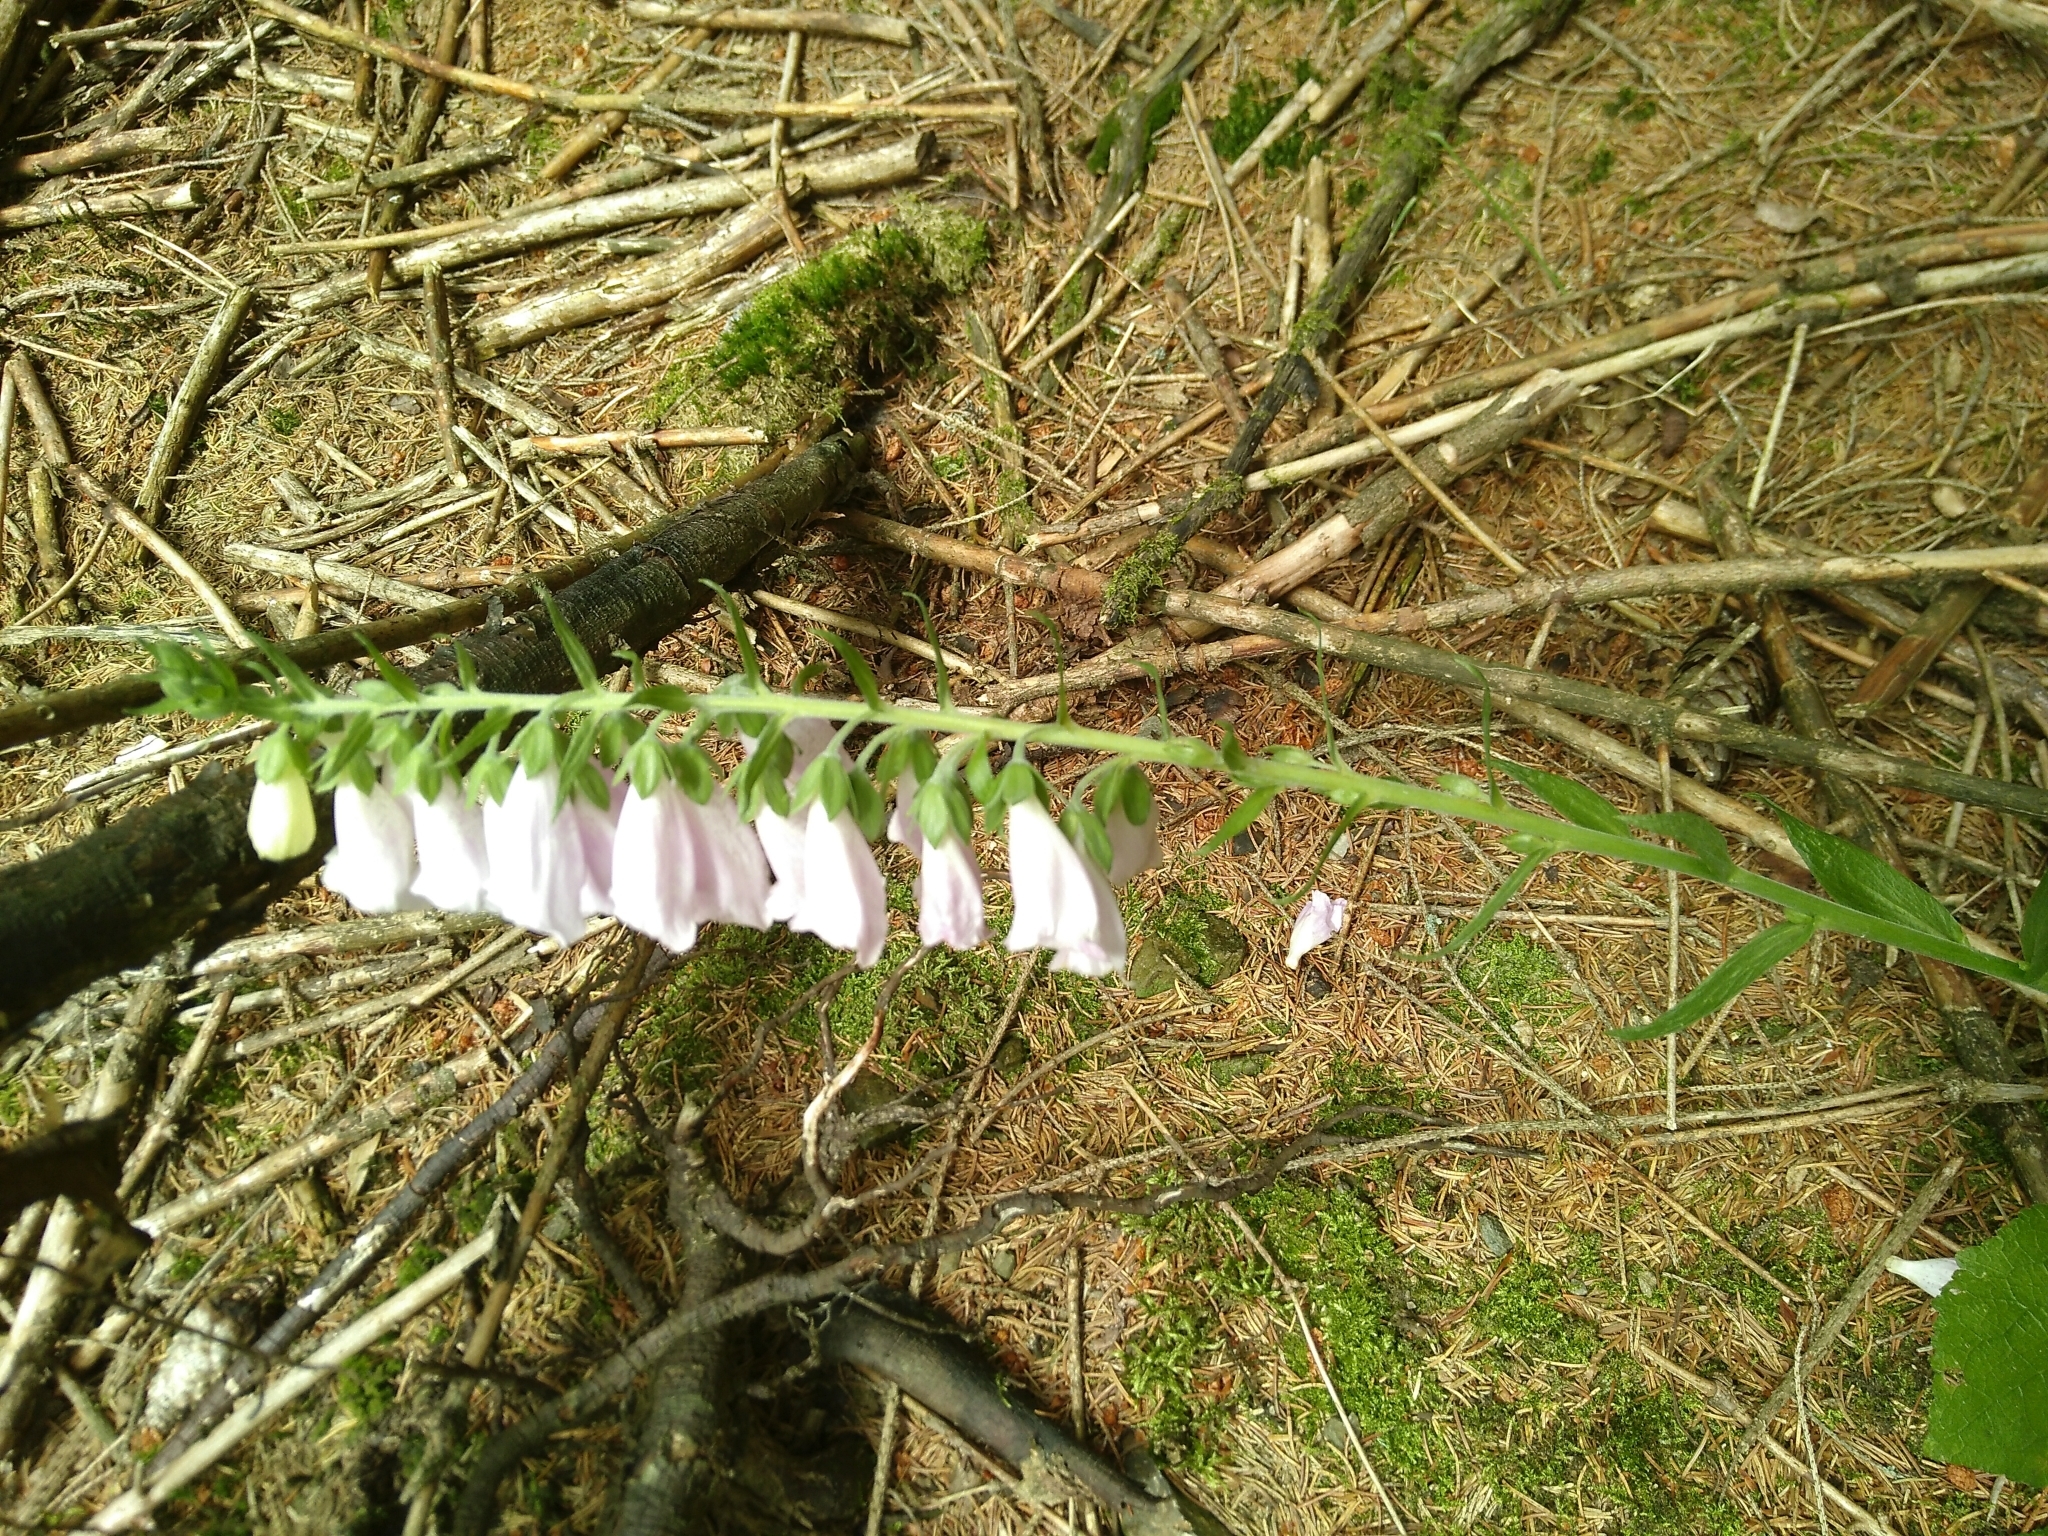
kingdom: Plantae
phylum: Tracheophyta
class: Magnoliopsida
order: Lamiales
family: Plantaginaceae
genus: Digitalis
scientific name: Digitalis purpurea
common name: Foxglove
